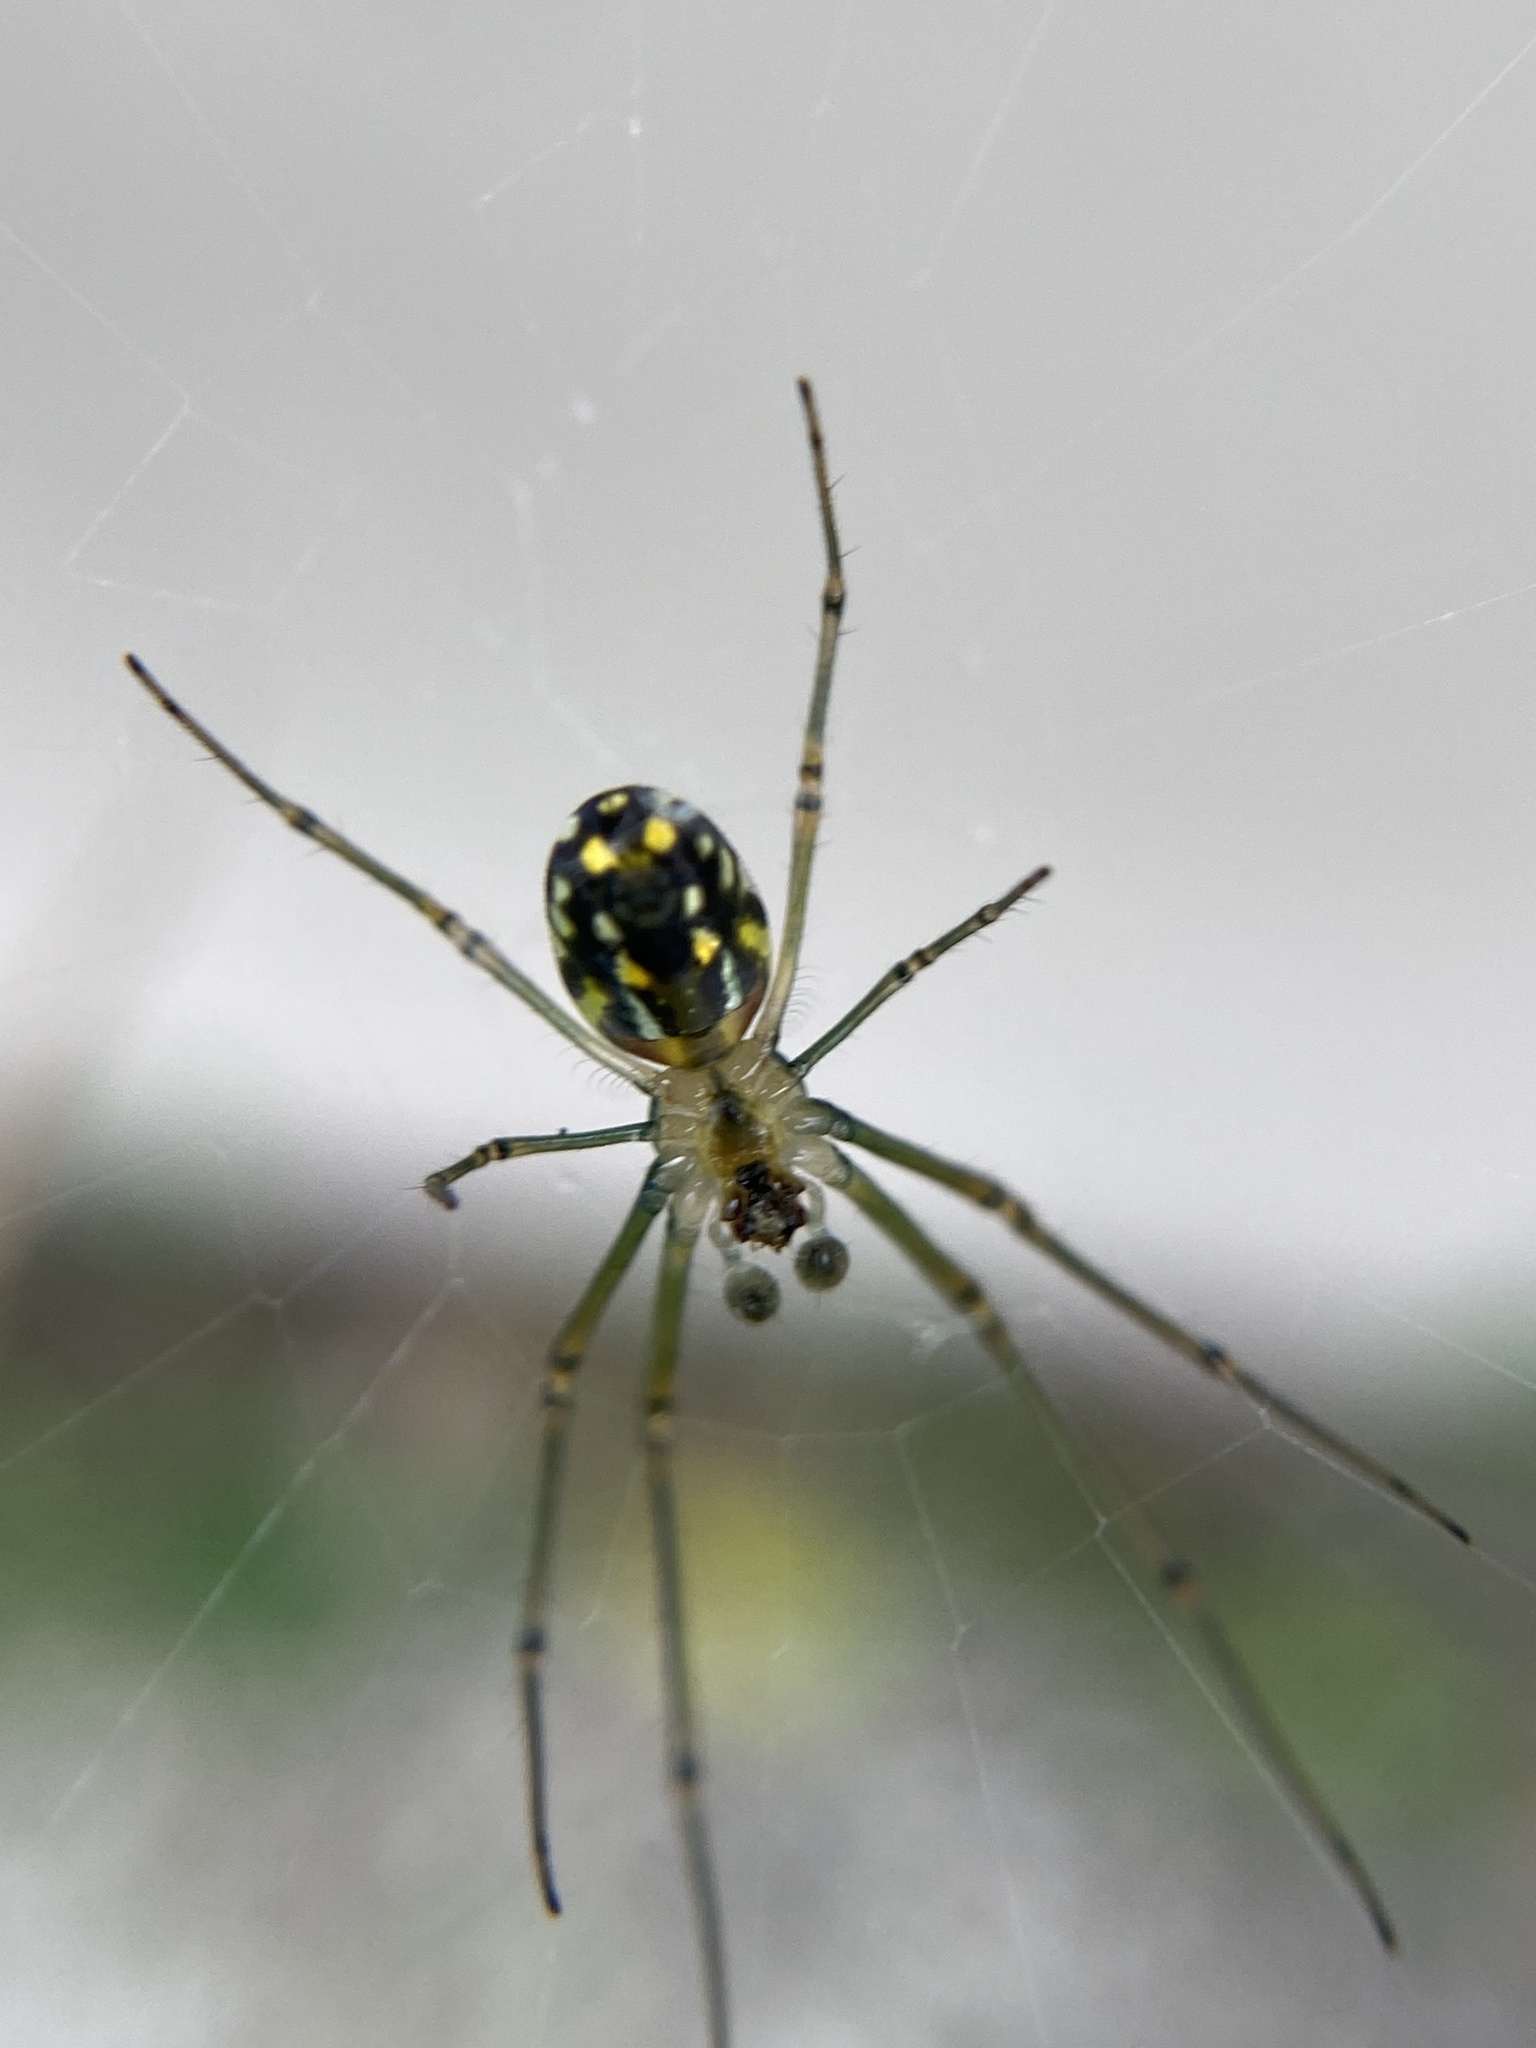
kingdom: Animalia
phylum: Arthropoda
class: Arachnida
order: Araneae
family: Tetragnathidae
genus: Leucauge
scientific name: Leucauge argyra
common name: Longjawed orb weavers
